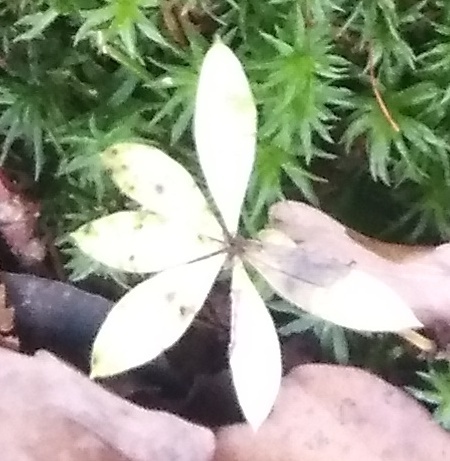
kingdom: Plantae
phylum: Tracheophyta
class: Magnoliopsida
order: Ericales
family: Primulaceae
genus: Lysimachia
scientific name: Lysimachia europaea
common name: Arctic starflower
